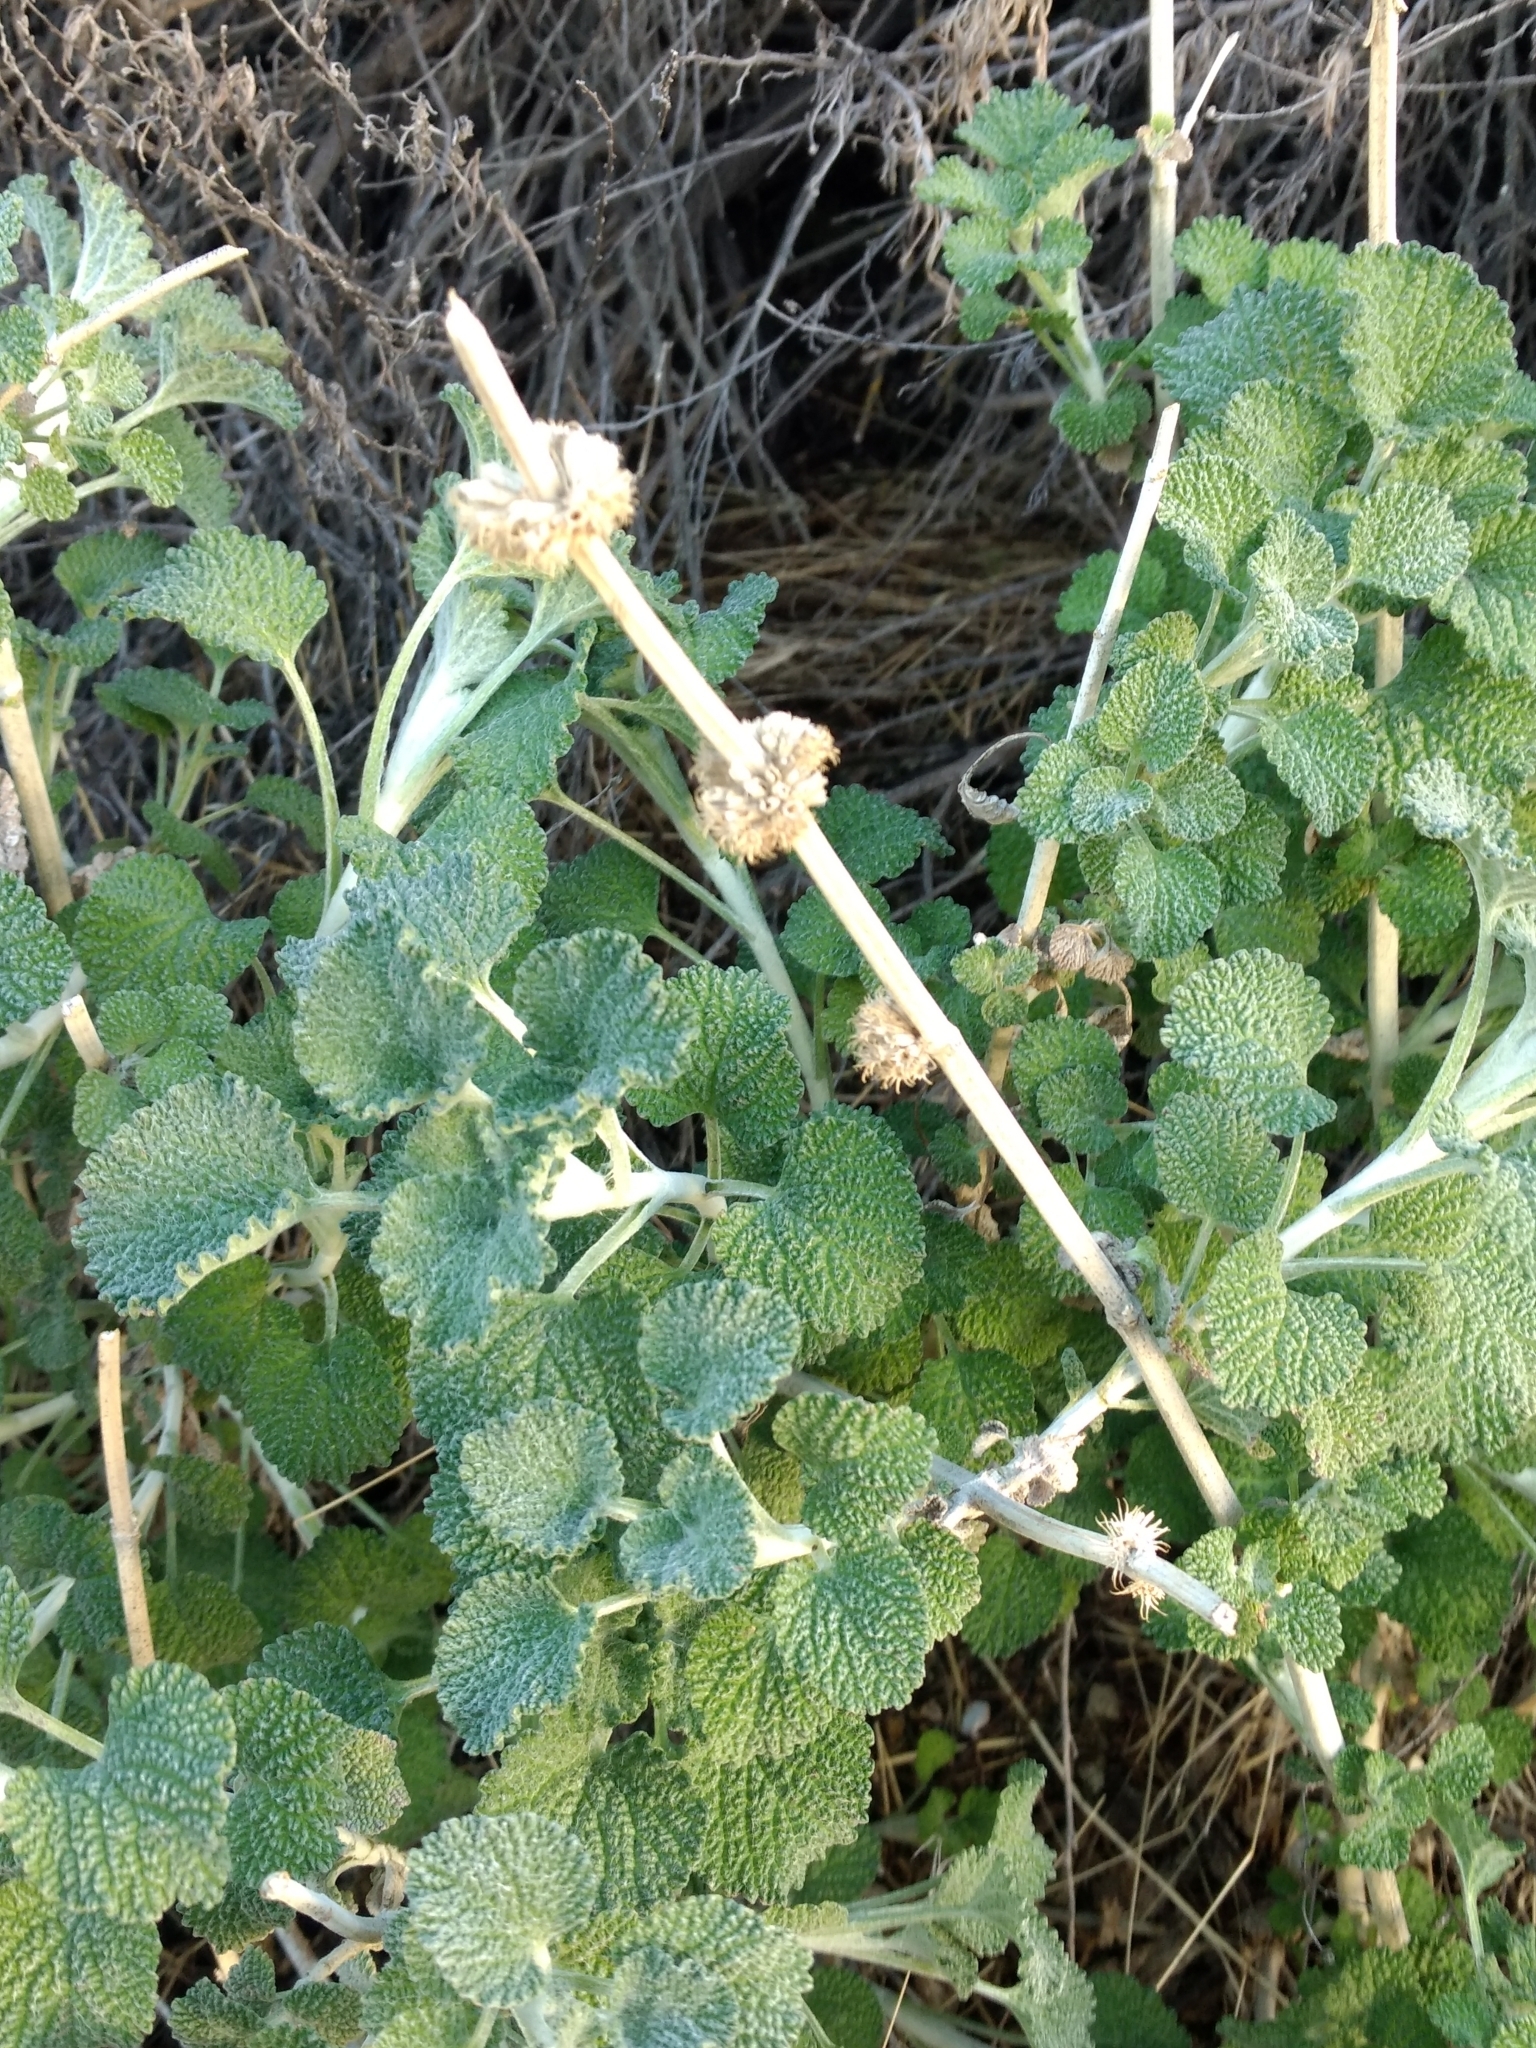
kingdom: Plantae
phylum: Tracheophyta
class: Magnoliopsida
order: Lamiales
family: Lamiaceae
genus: Marrubium
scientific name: Marrubium vulgare
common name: Horehound
